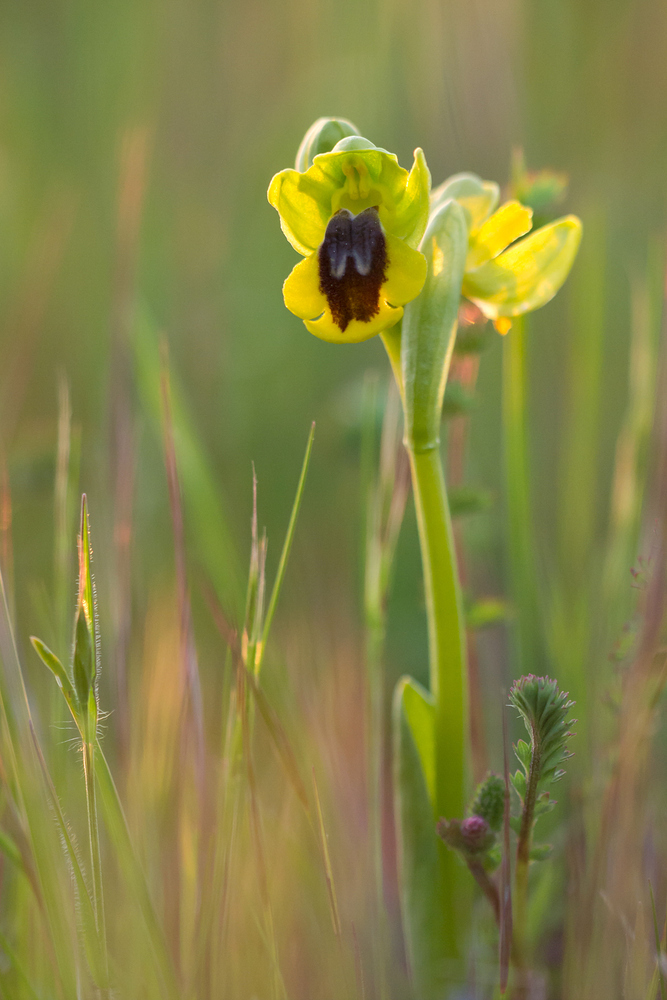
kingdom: Plantae
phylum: Tracheophyta
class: Liliopsida
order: Asparagales
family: Orchidaceae
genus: Ophrys
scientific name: Ophrys lutea
